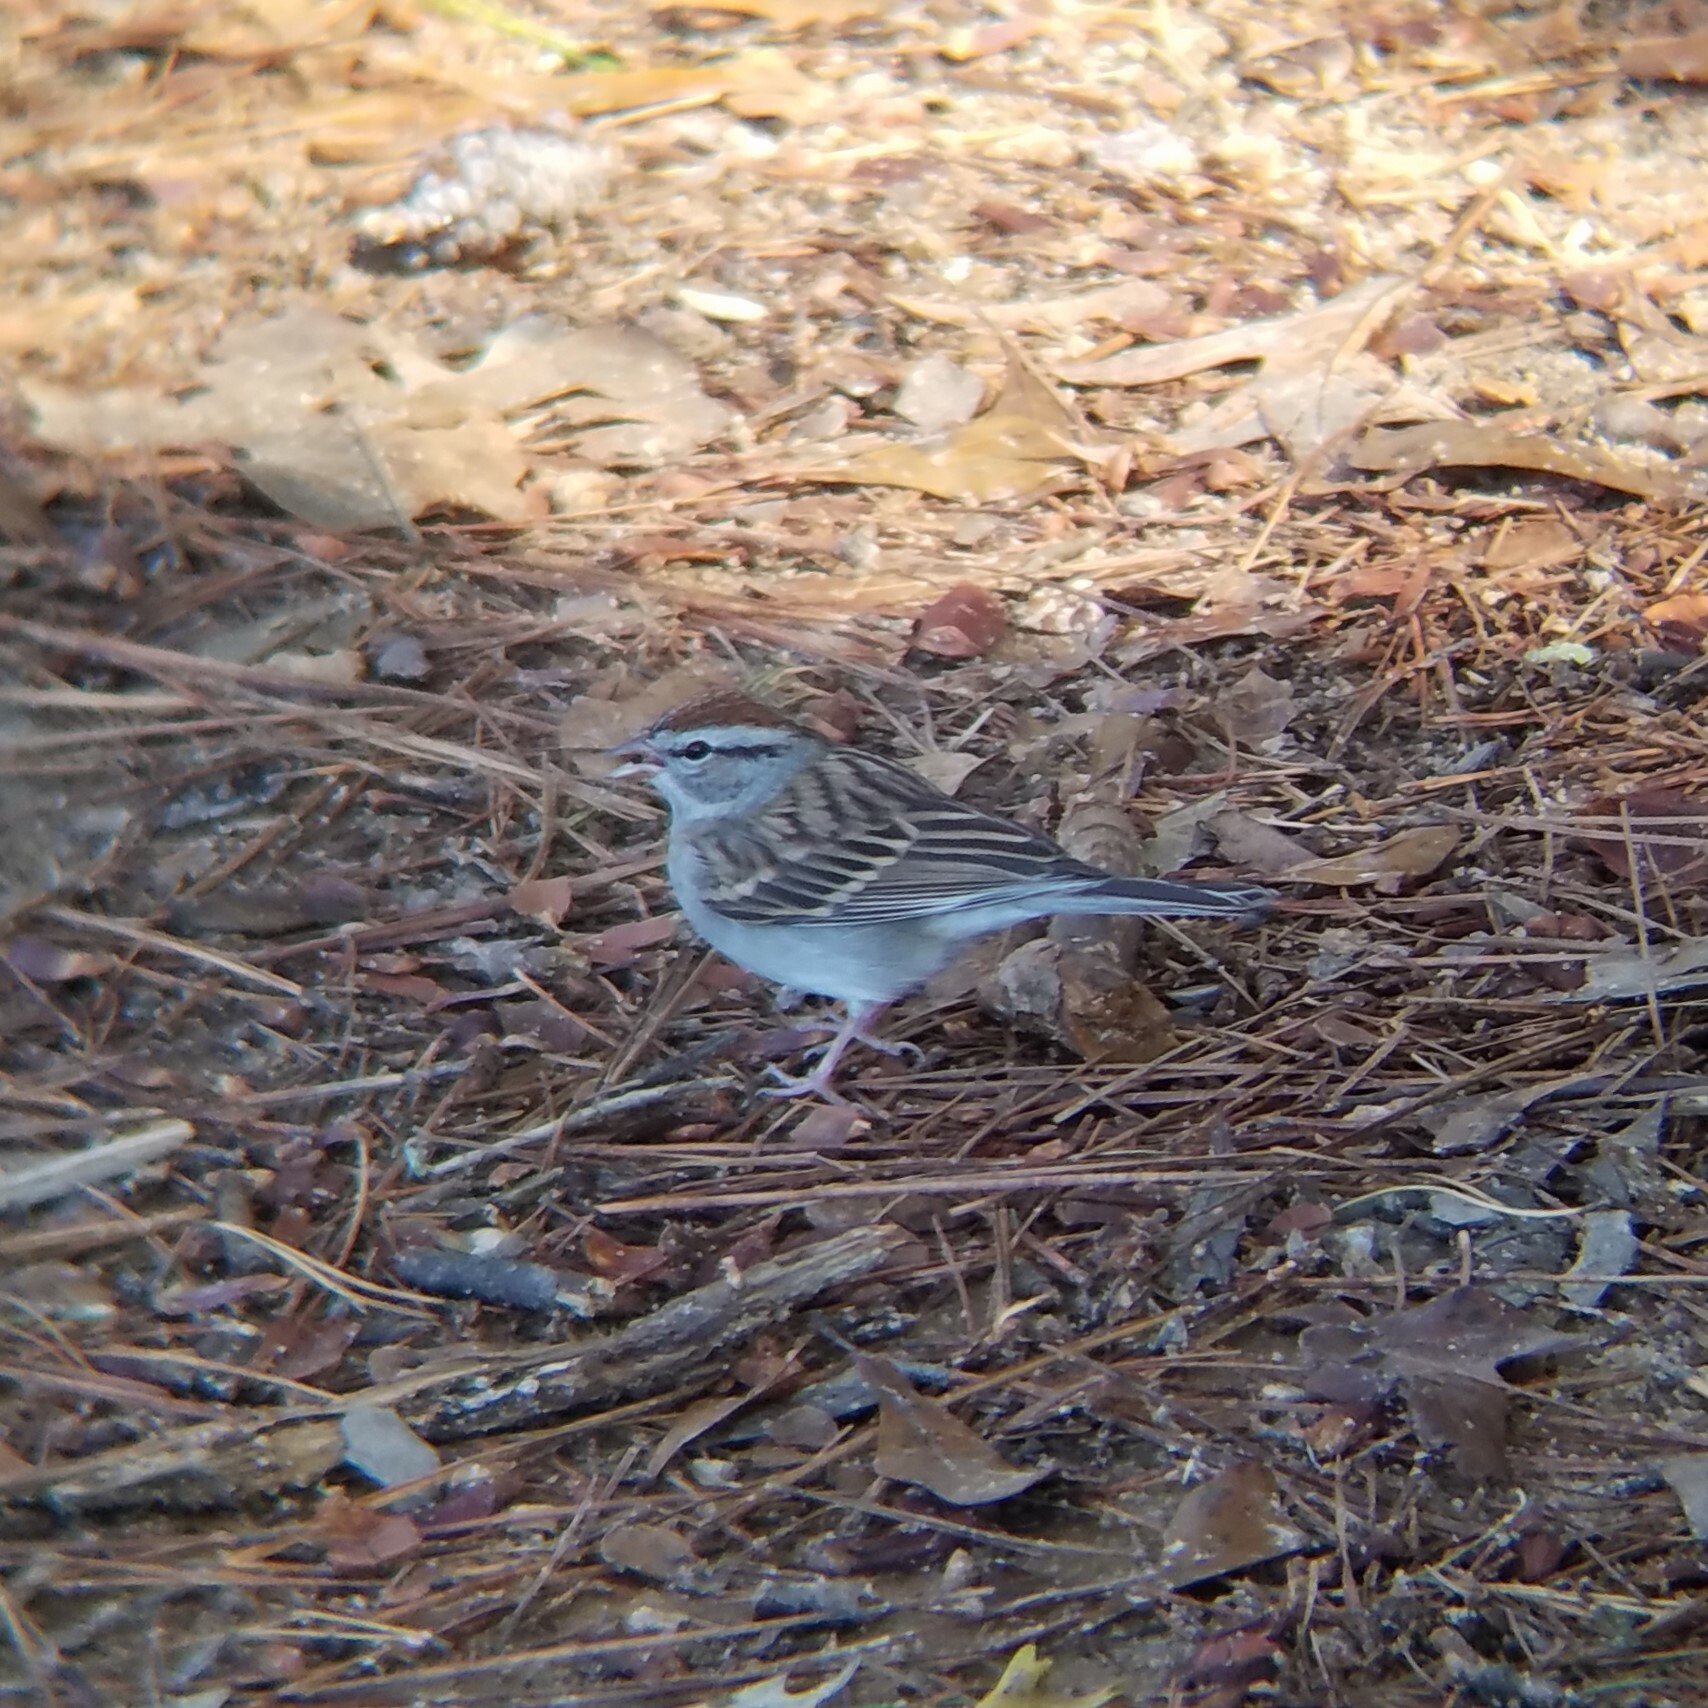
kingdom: Animalia
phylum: Chordata
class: Aves
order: Passeriformes
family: Passerellidae
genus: Spizella
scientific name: Spizella passerina
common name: Chipping sparrow
